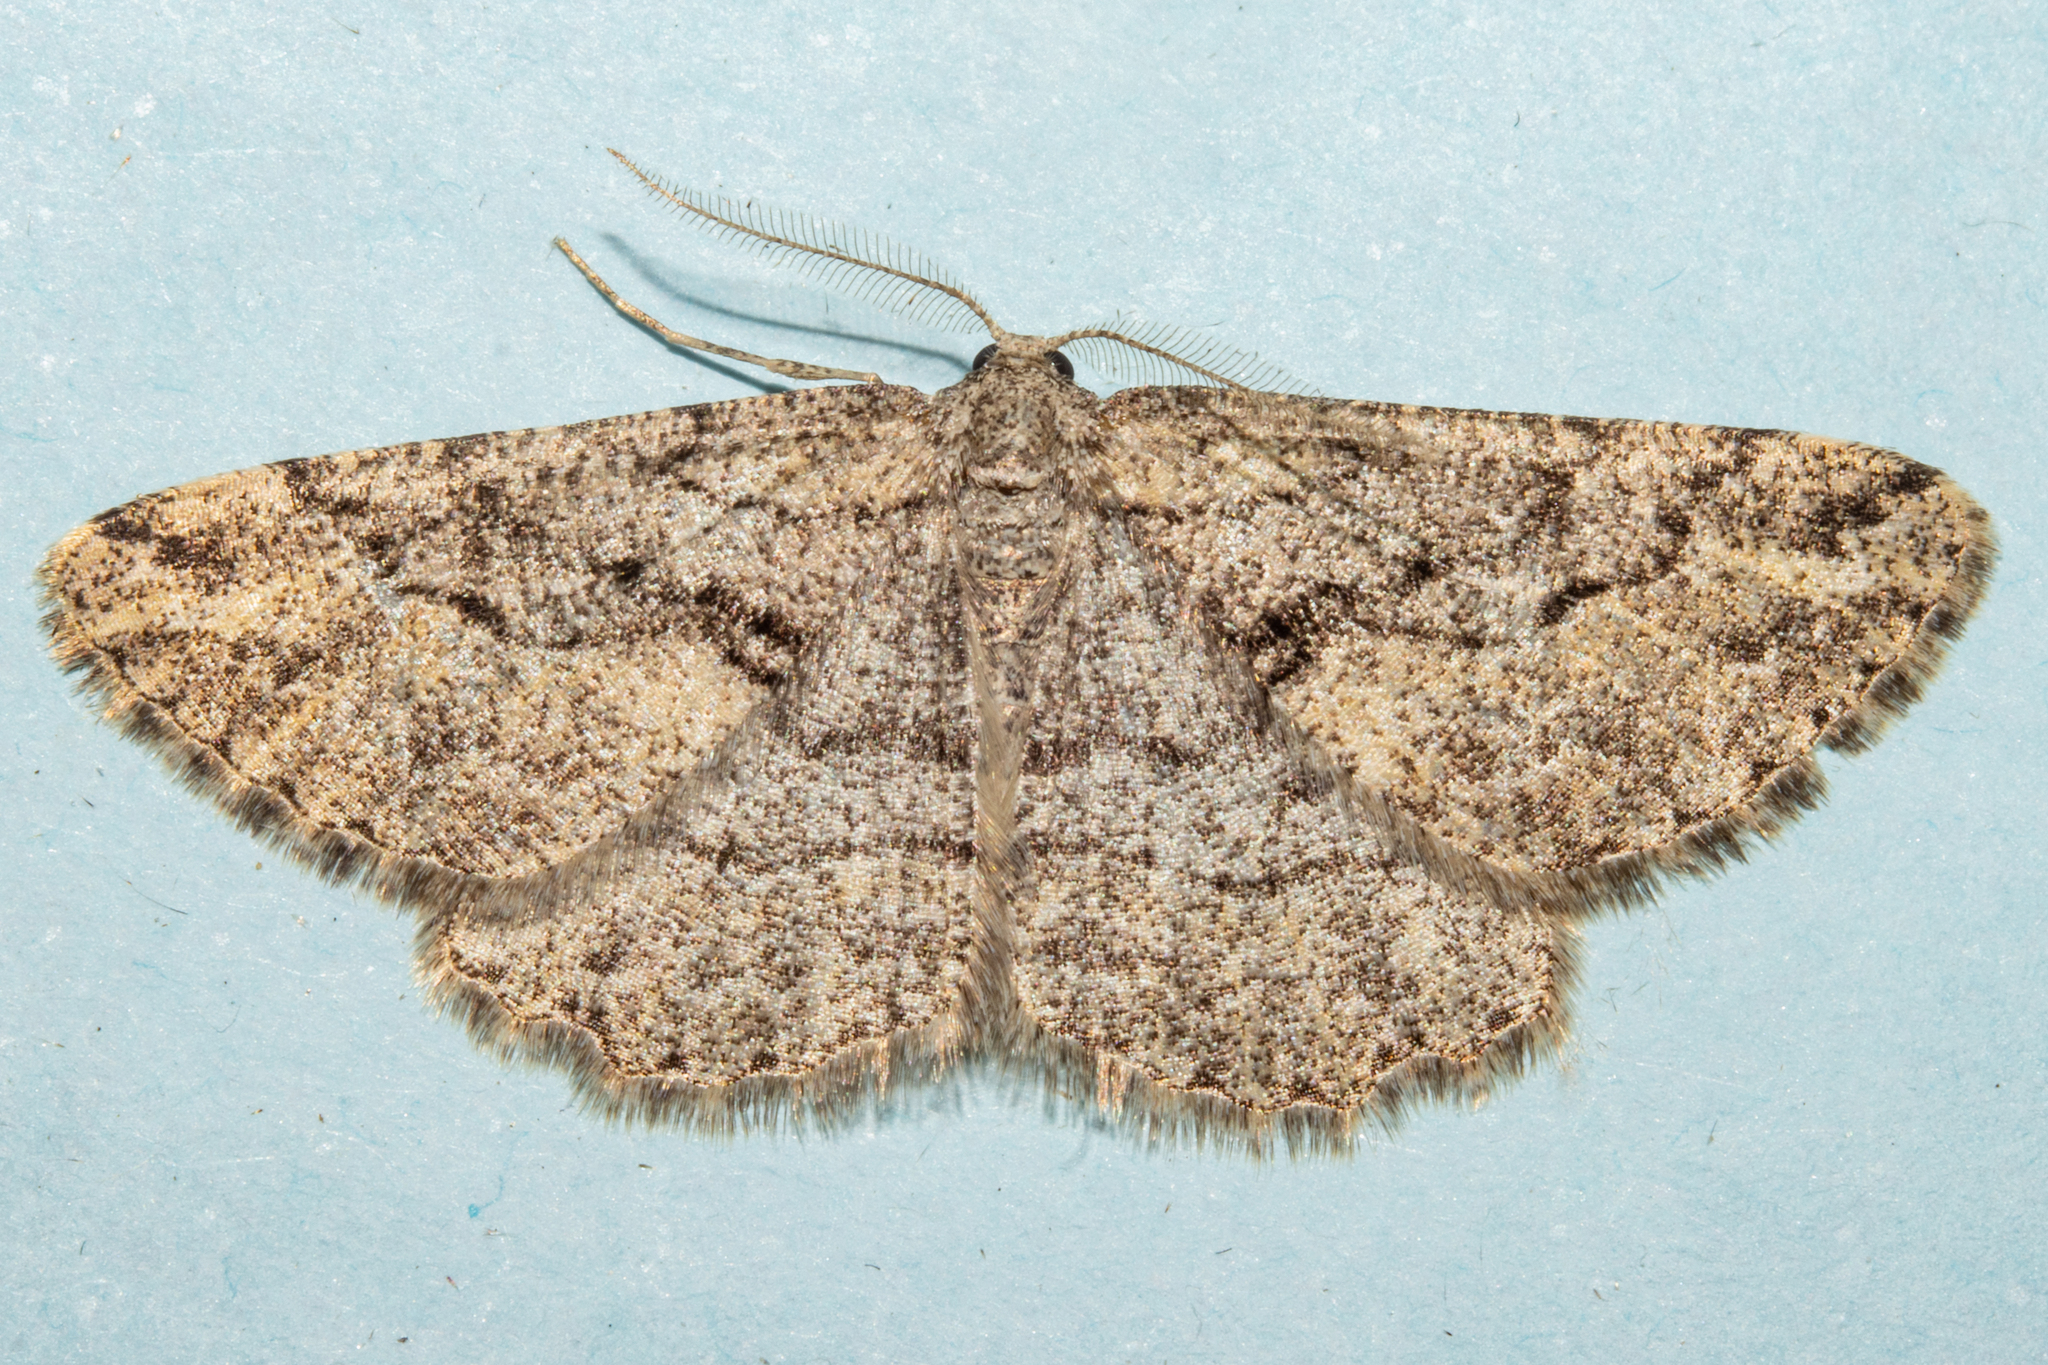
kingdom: Animalia
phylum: Arthropoda
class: Insecta
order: Lepidoptera
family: Geometridae
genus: Zermizinga
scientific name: Zermizinga indocilisaria
